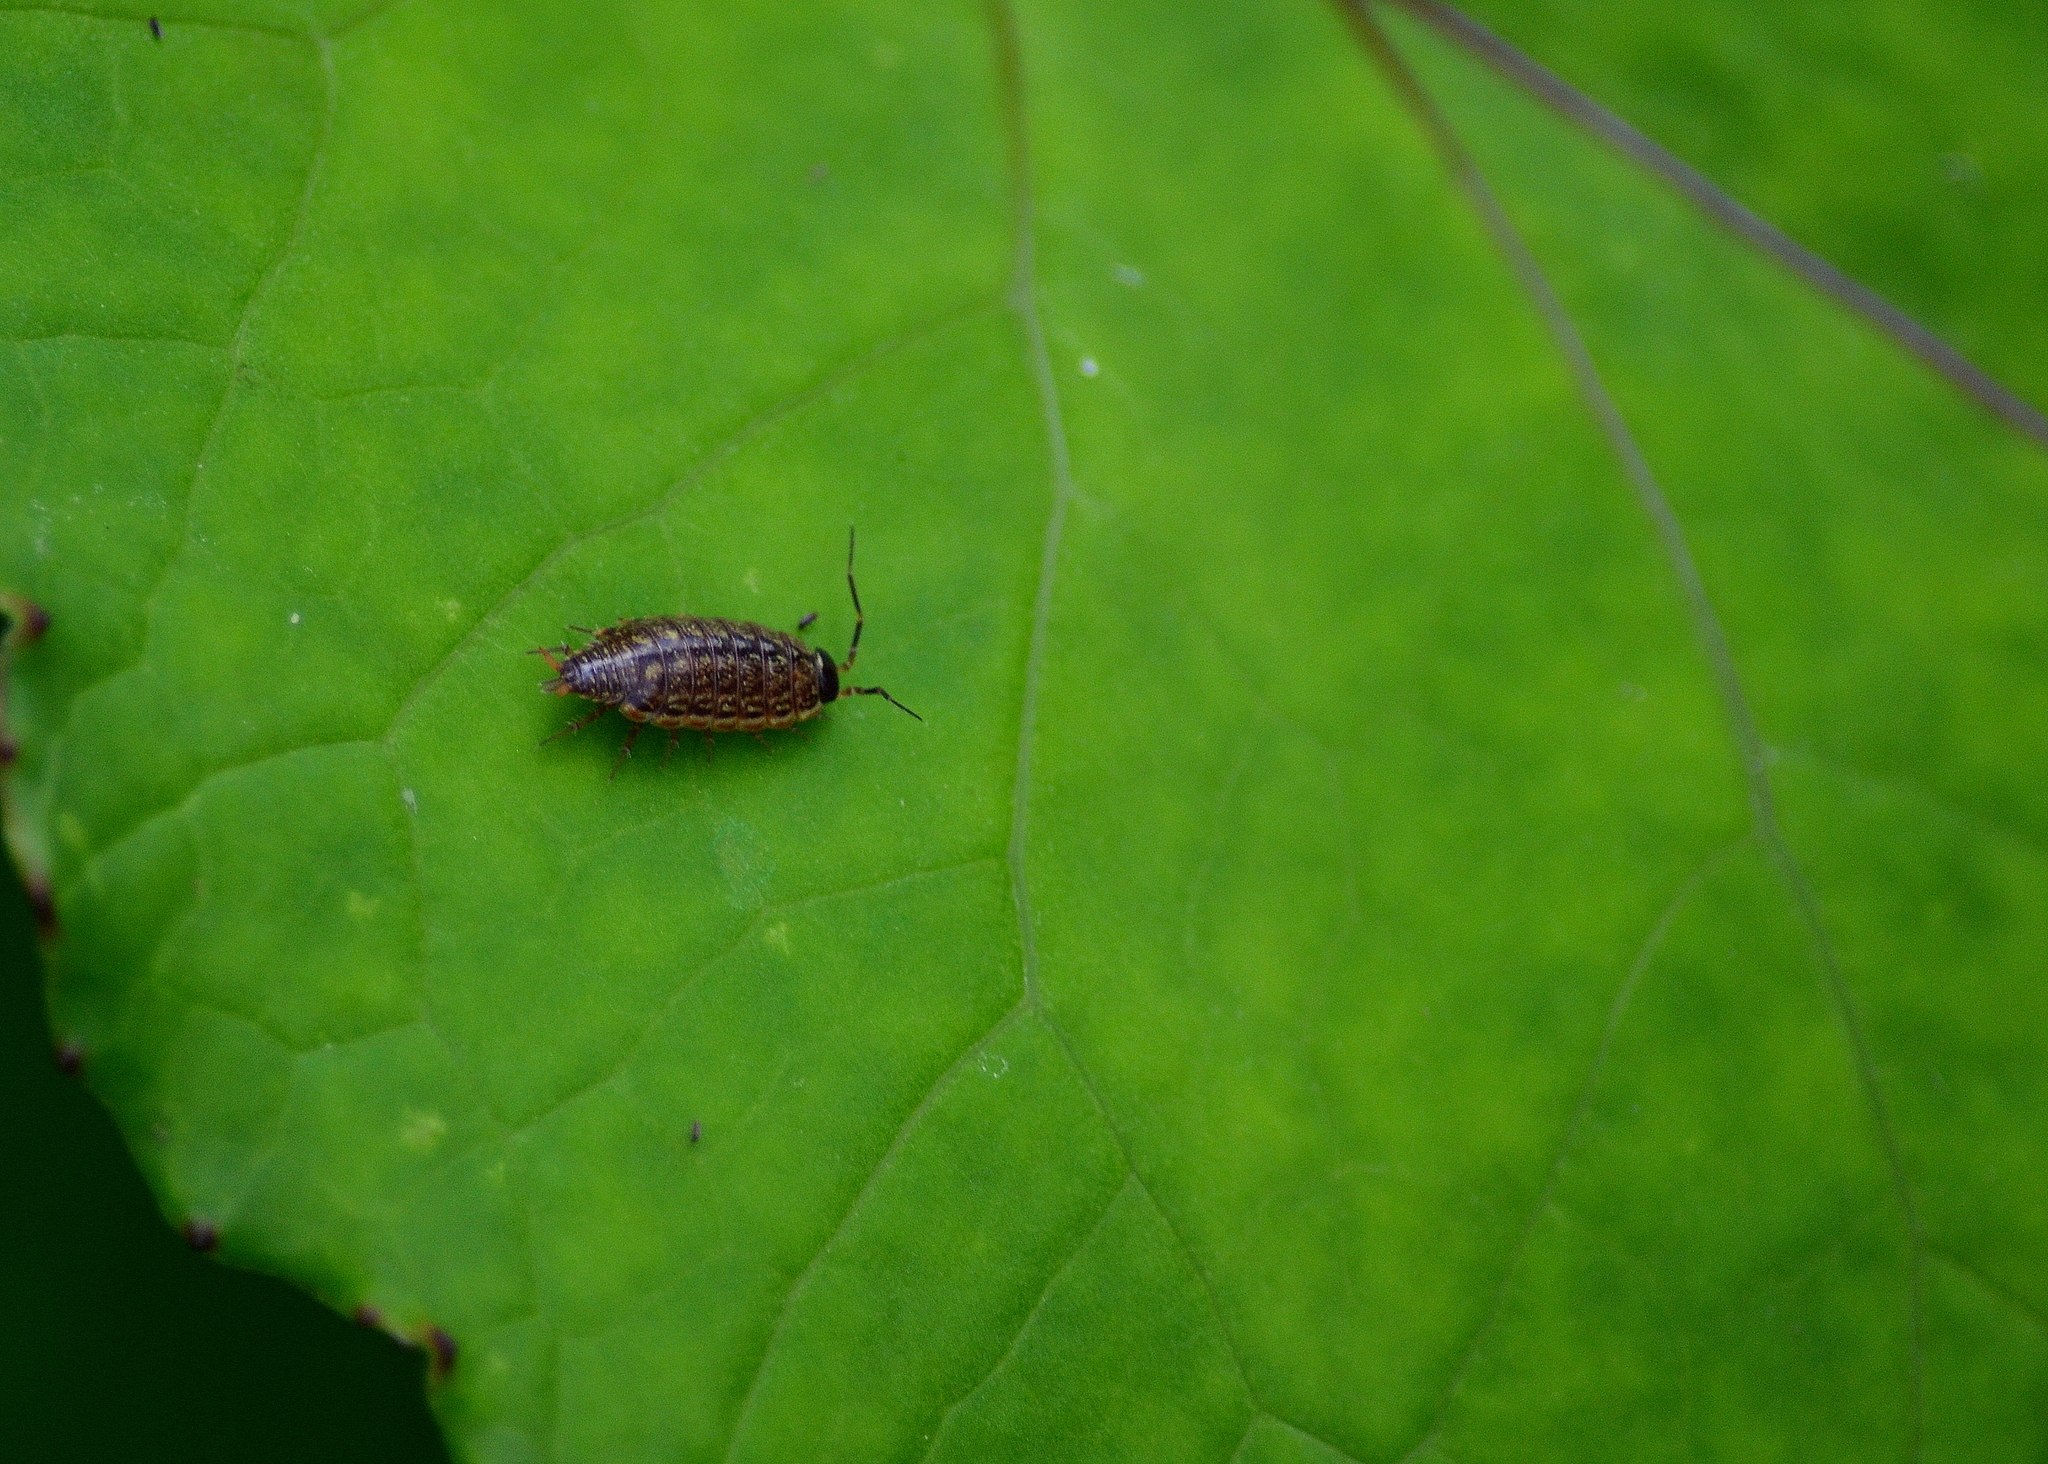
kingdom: Animalia
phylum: Arthropoda
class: Malacostraca
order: Isopoda
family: Philosciidae
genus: Philoscia
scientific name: Philoscia muscorum
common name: Common striped woodlouse
